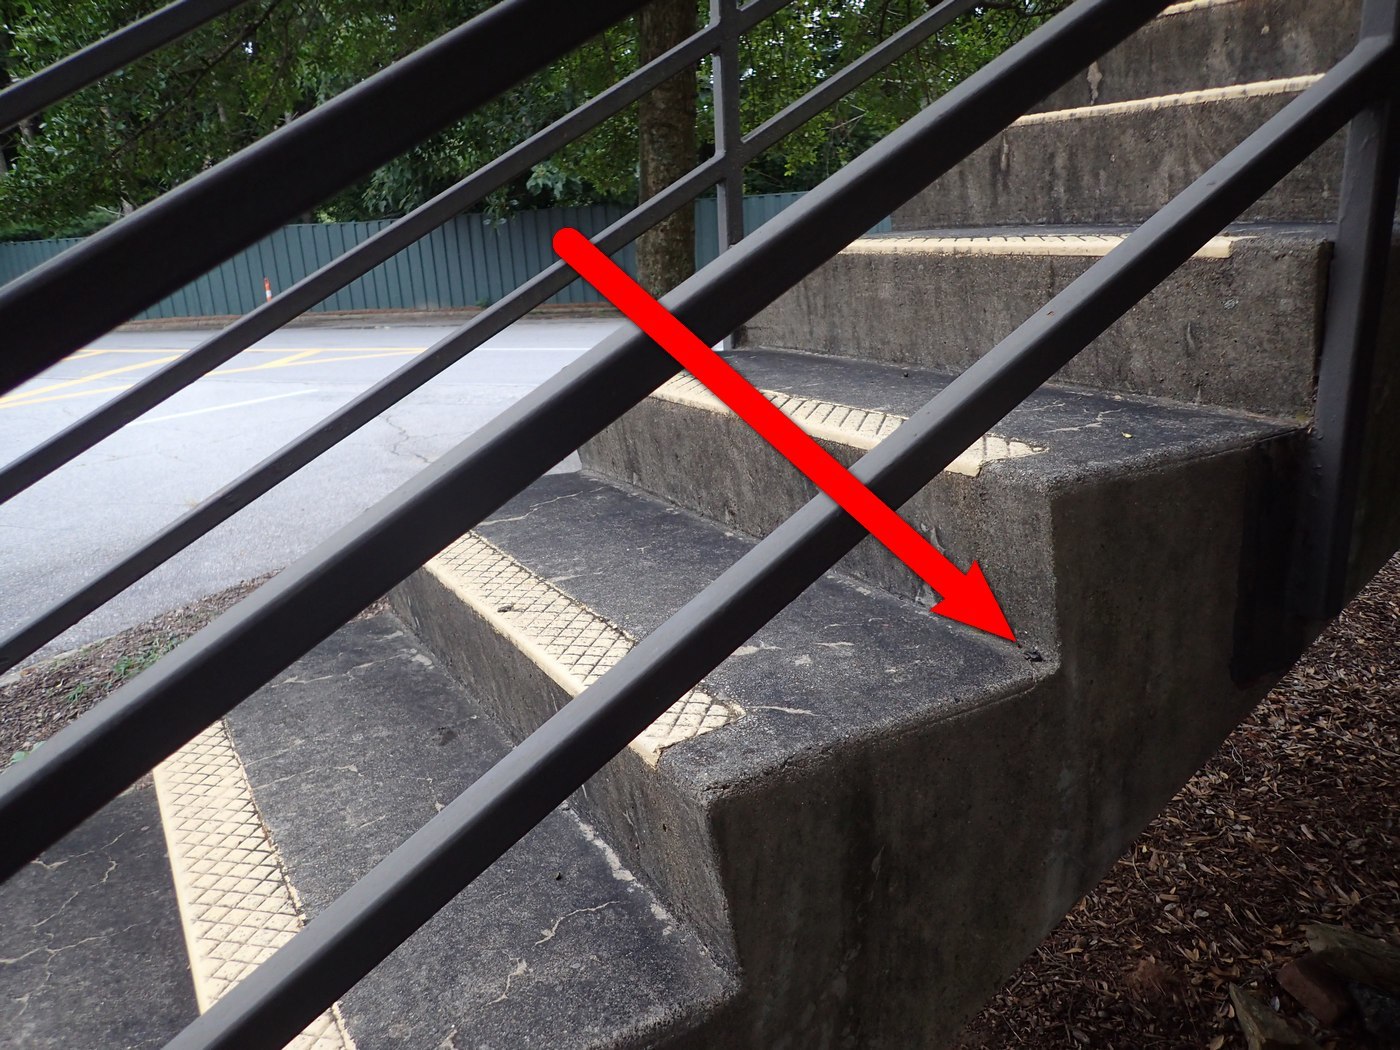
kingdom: Animalia
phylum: Chordata
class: Amphibia
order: Anura
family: Hylidae
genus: Dryophytes
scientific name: Dryophytes chrysoscelis
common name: Cope's gray treefrog
